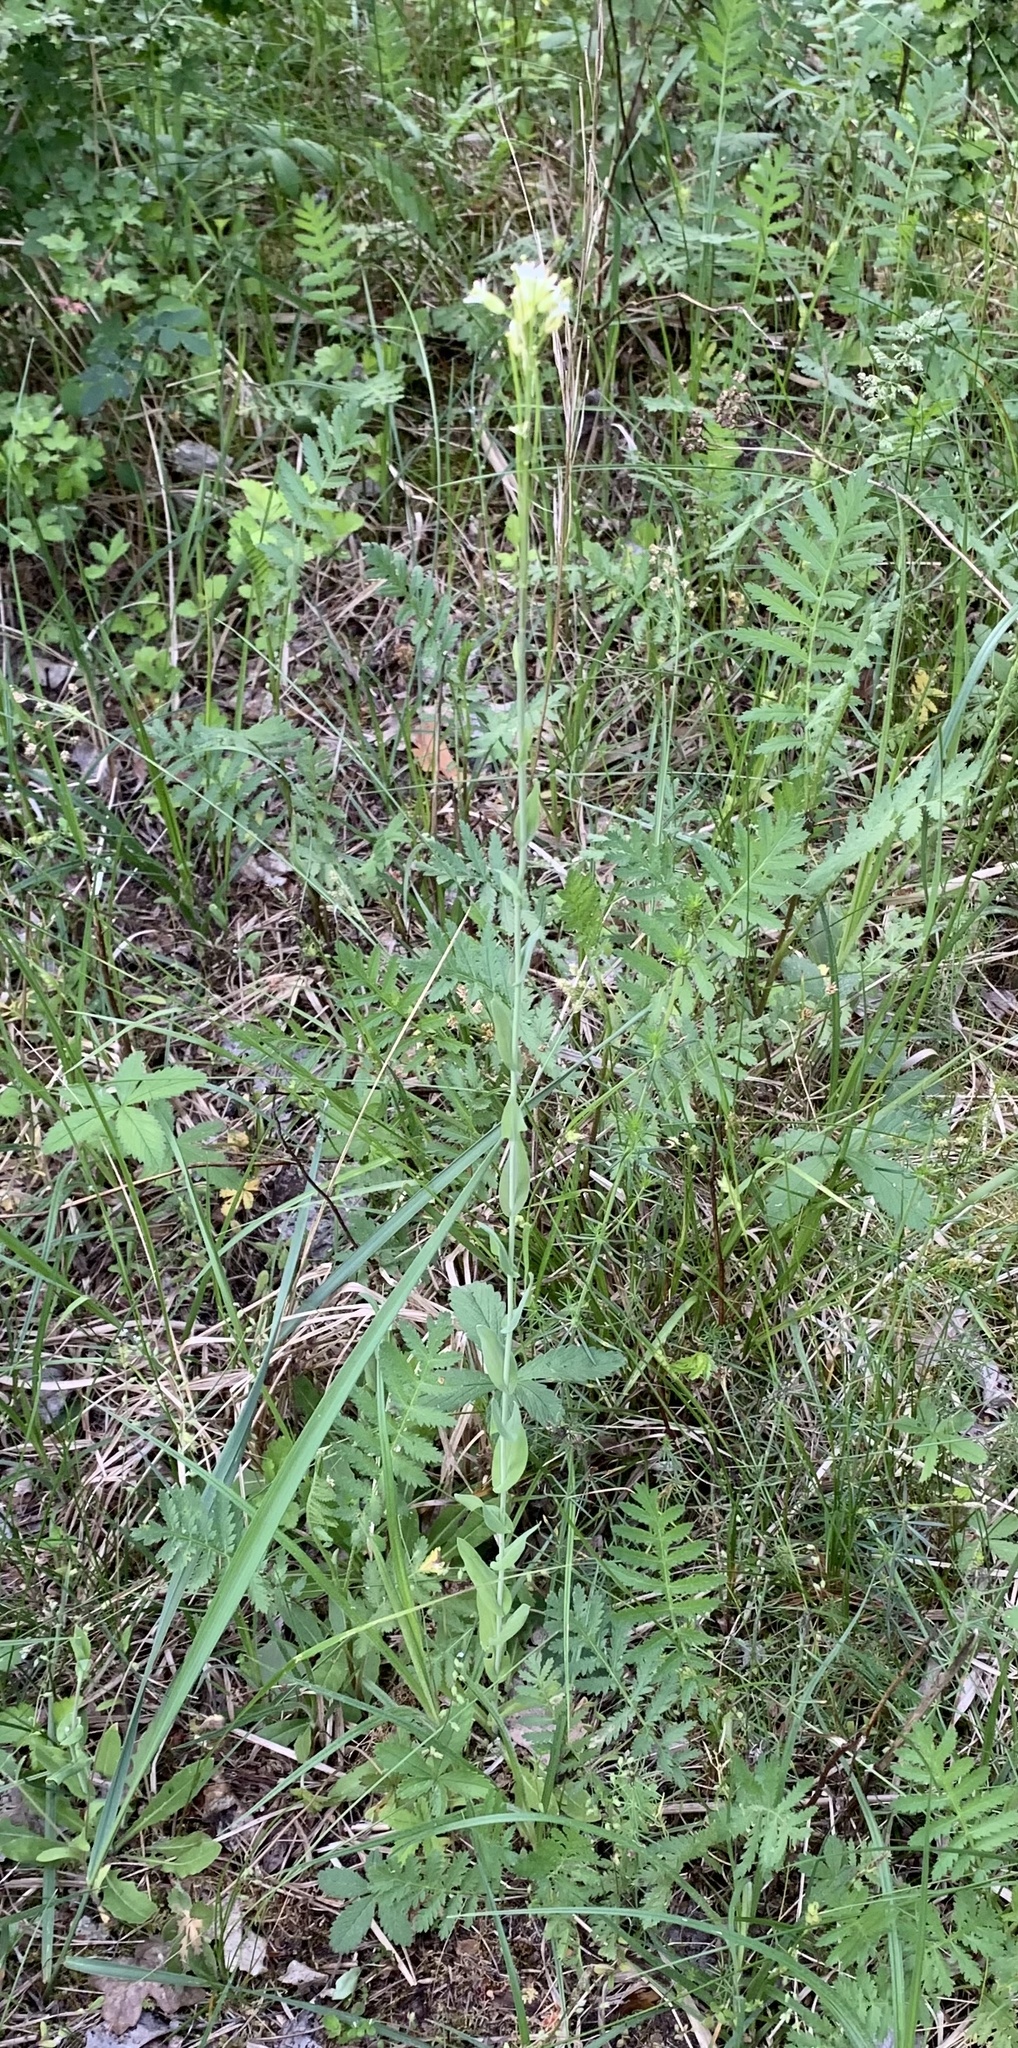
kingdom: Plantae
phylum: Tracheophyta
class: Magnoliopsida
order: Brassicales
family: Brassicaceae
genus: Turritis
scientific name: Turritis glabra
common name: Tower rockcress
